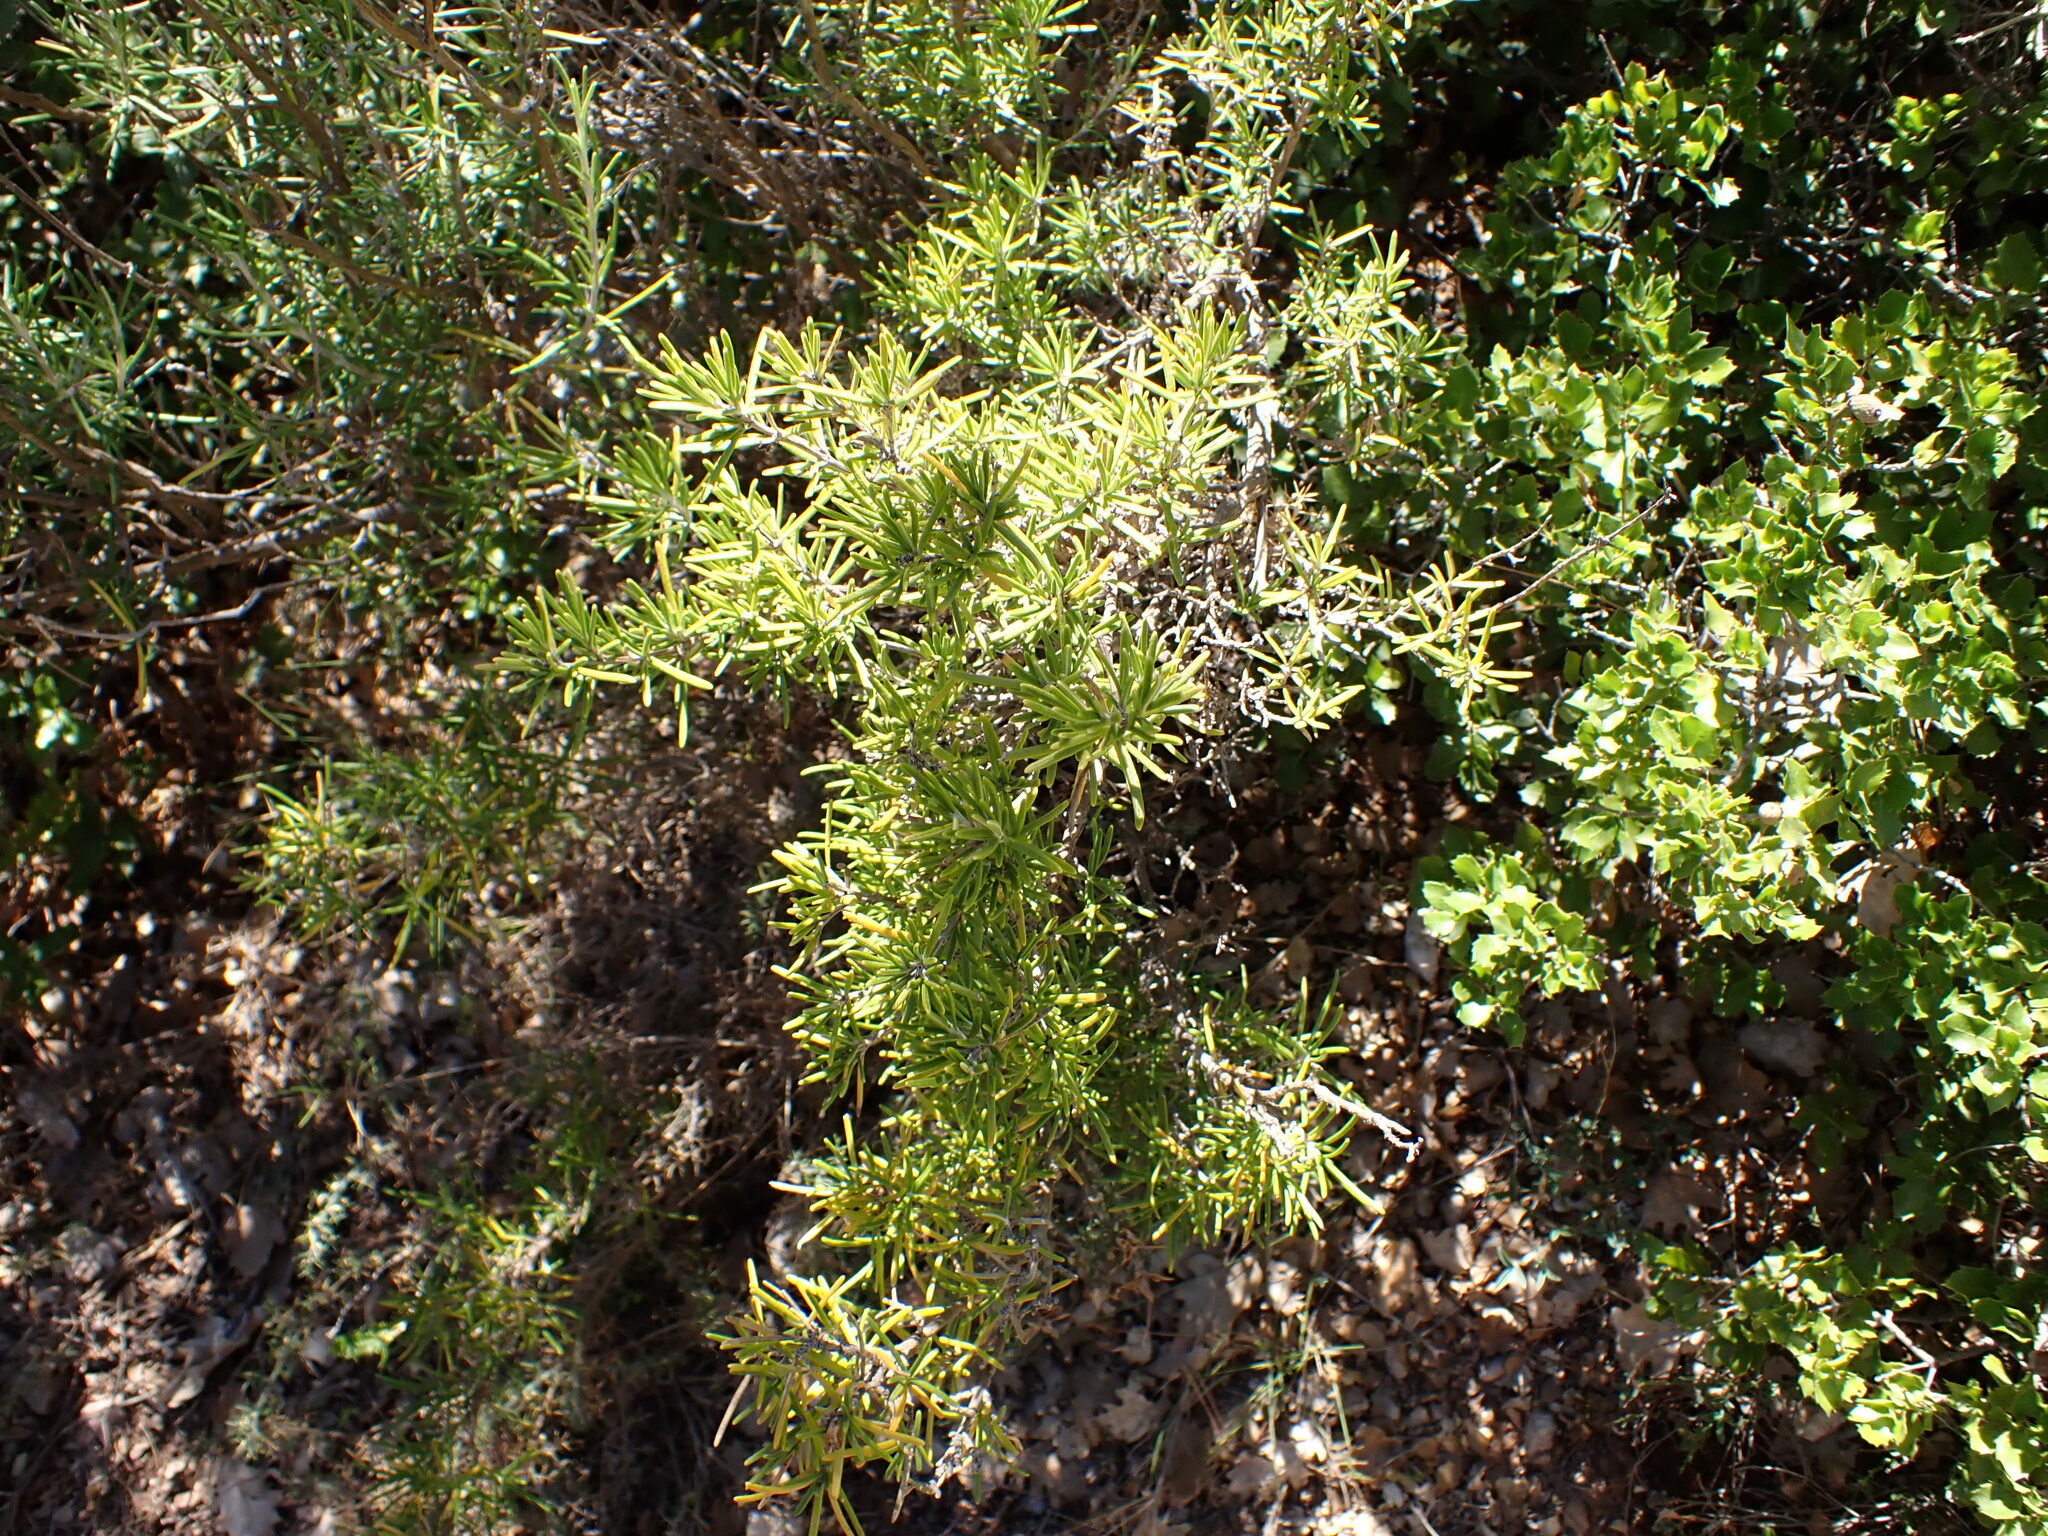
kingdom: Plantae
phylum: Tracheophyta
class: Magnoliopsida
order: Lamiales
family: Lamiaceae
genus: Salvia
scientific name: Salvia rosmarinus
